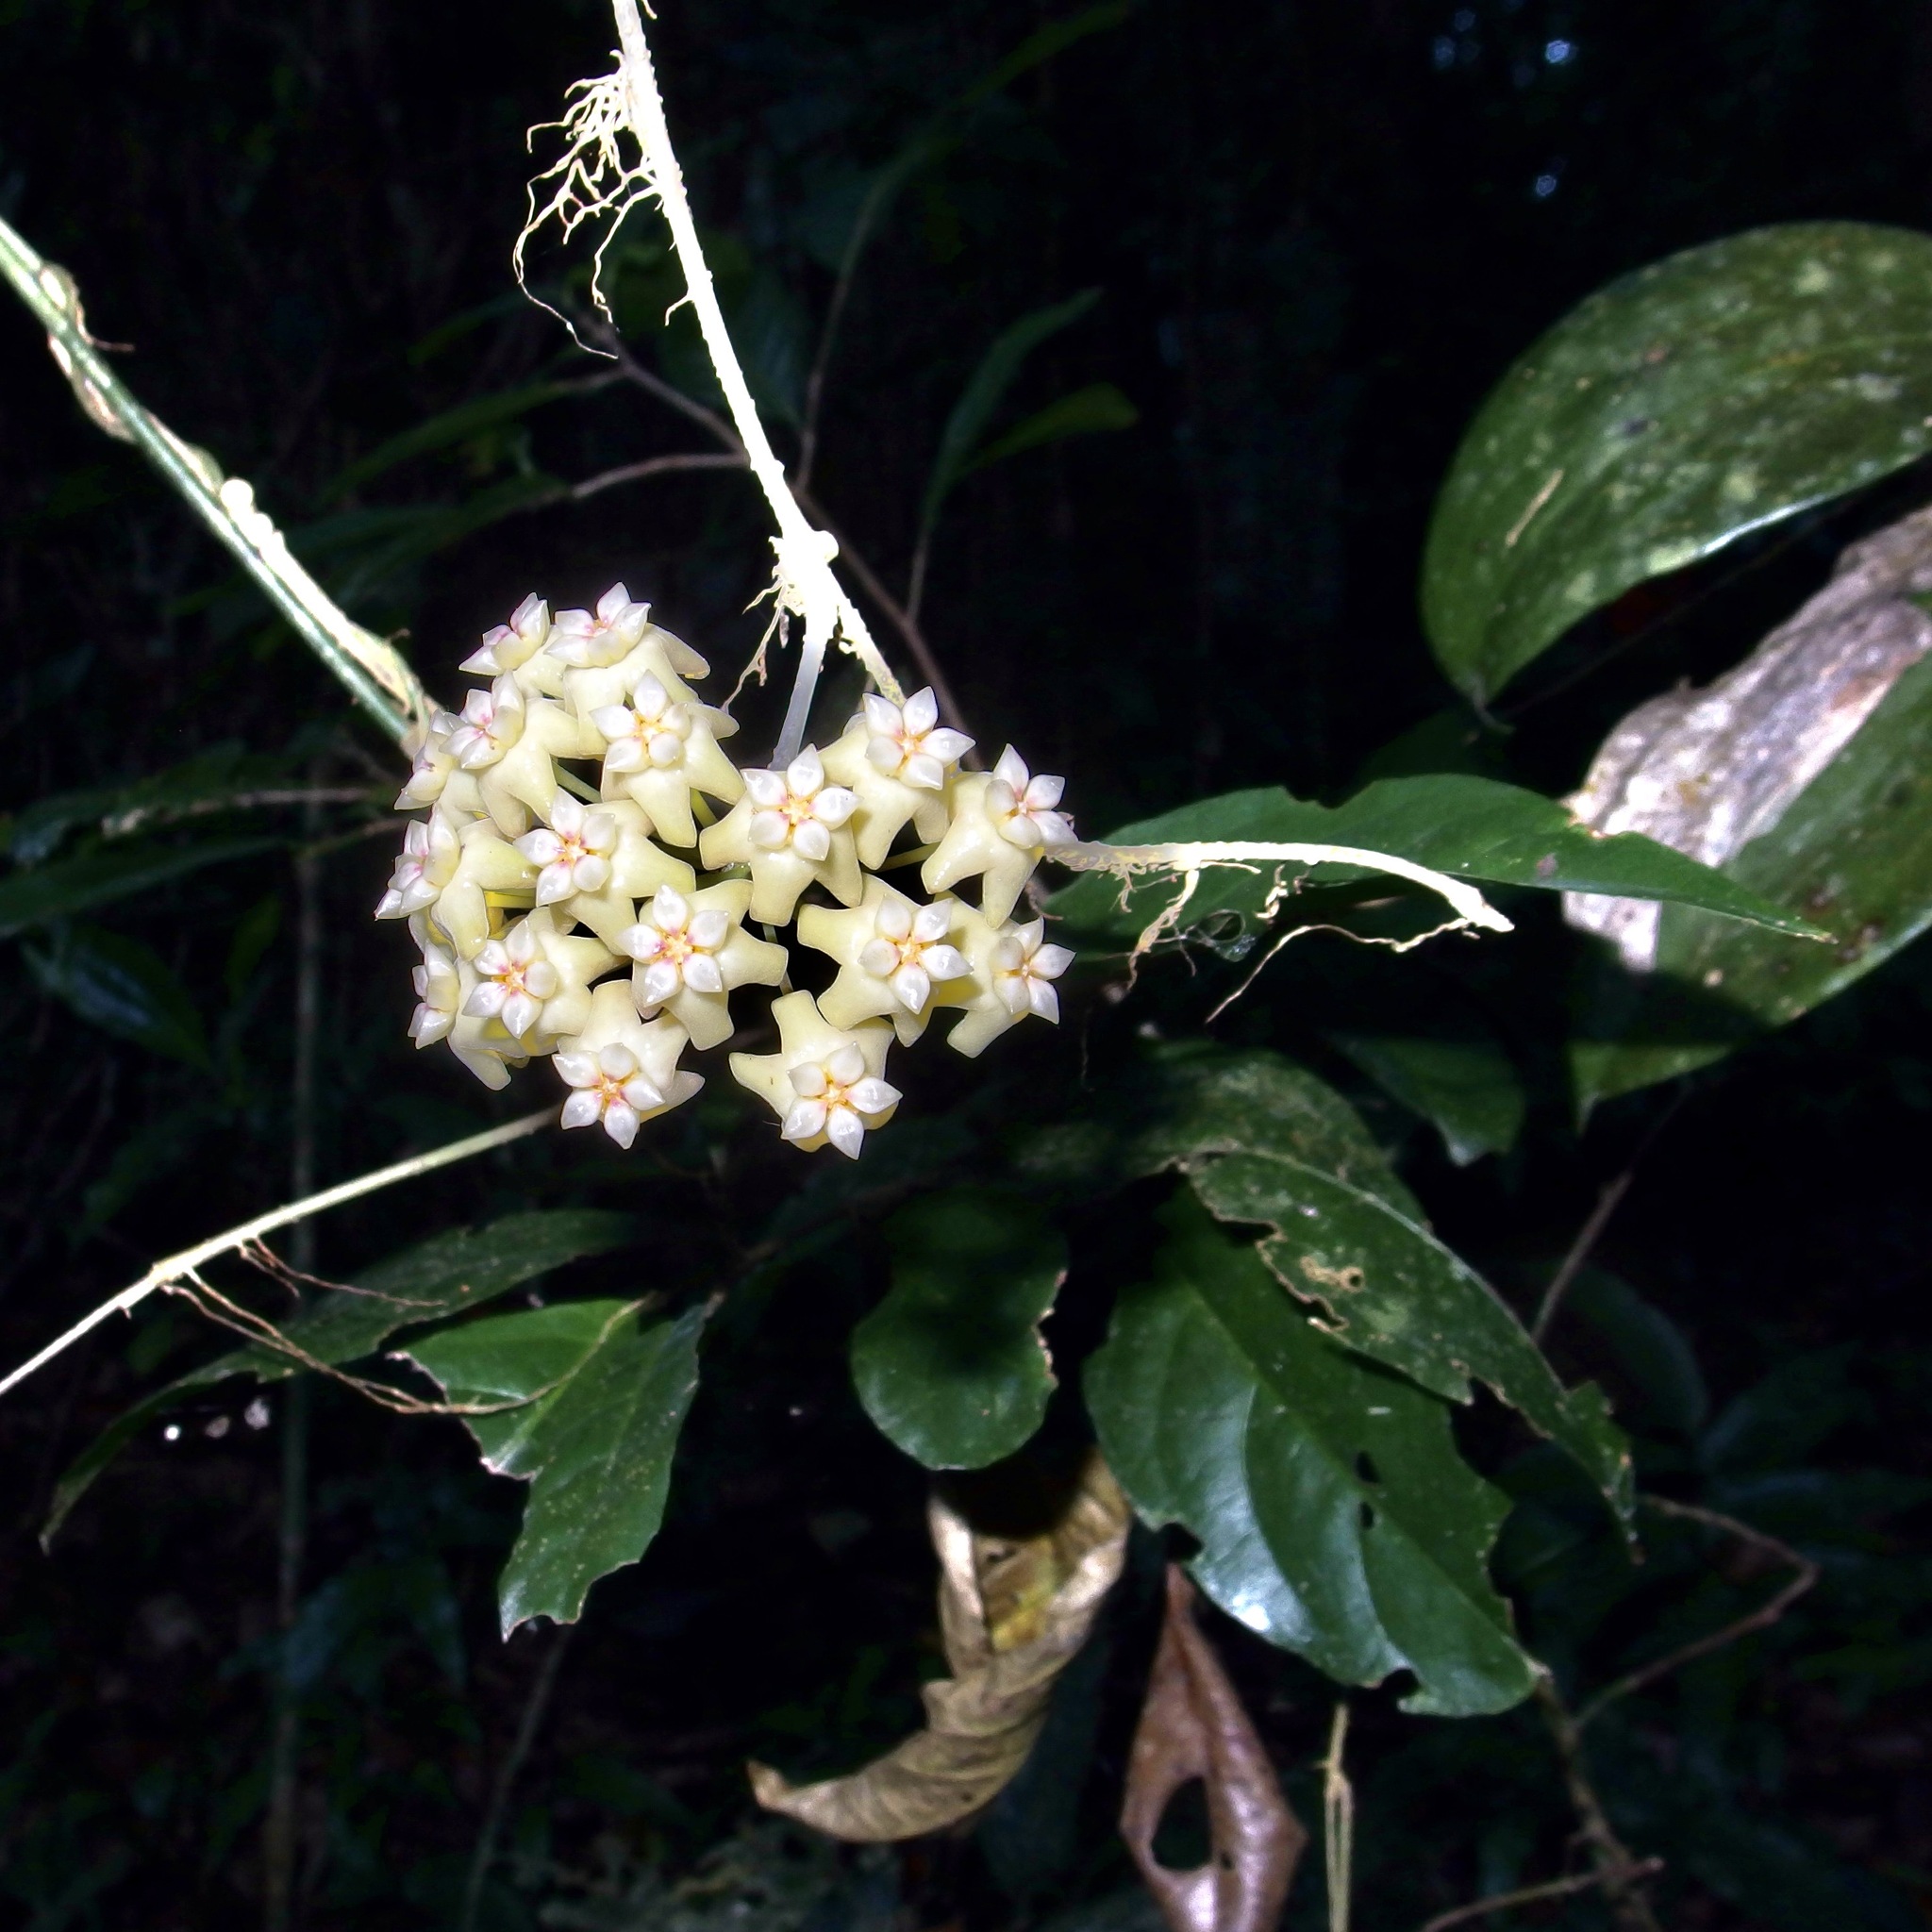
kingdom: Plantae
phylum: Tracheophyta
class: Magnoliopsida
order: Gentianales
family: Apocynaceae
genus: Hoya
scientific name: Hoya pottsii
